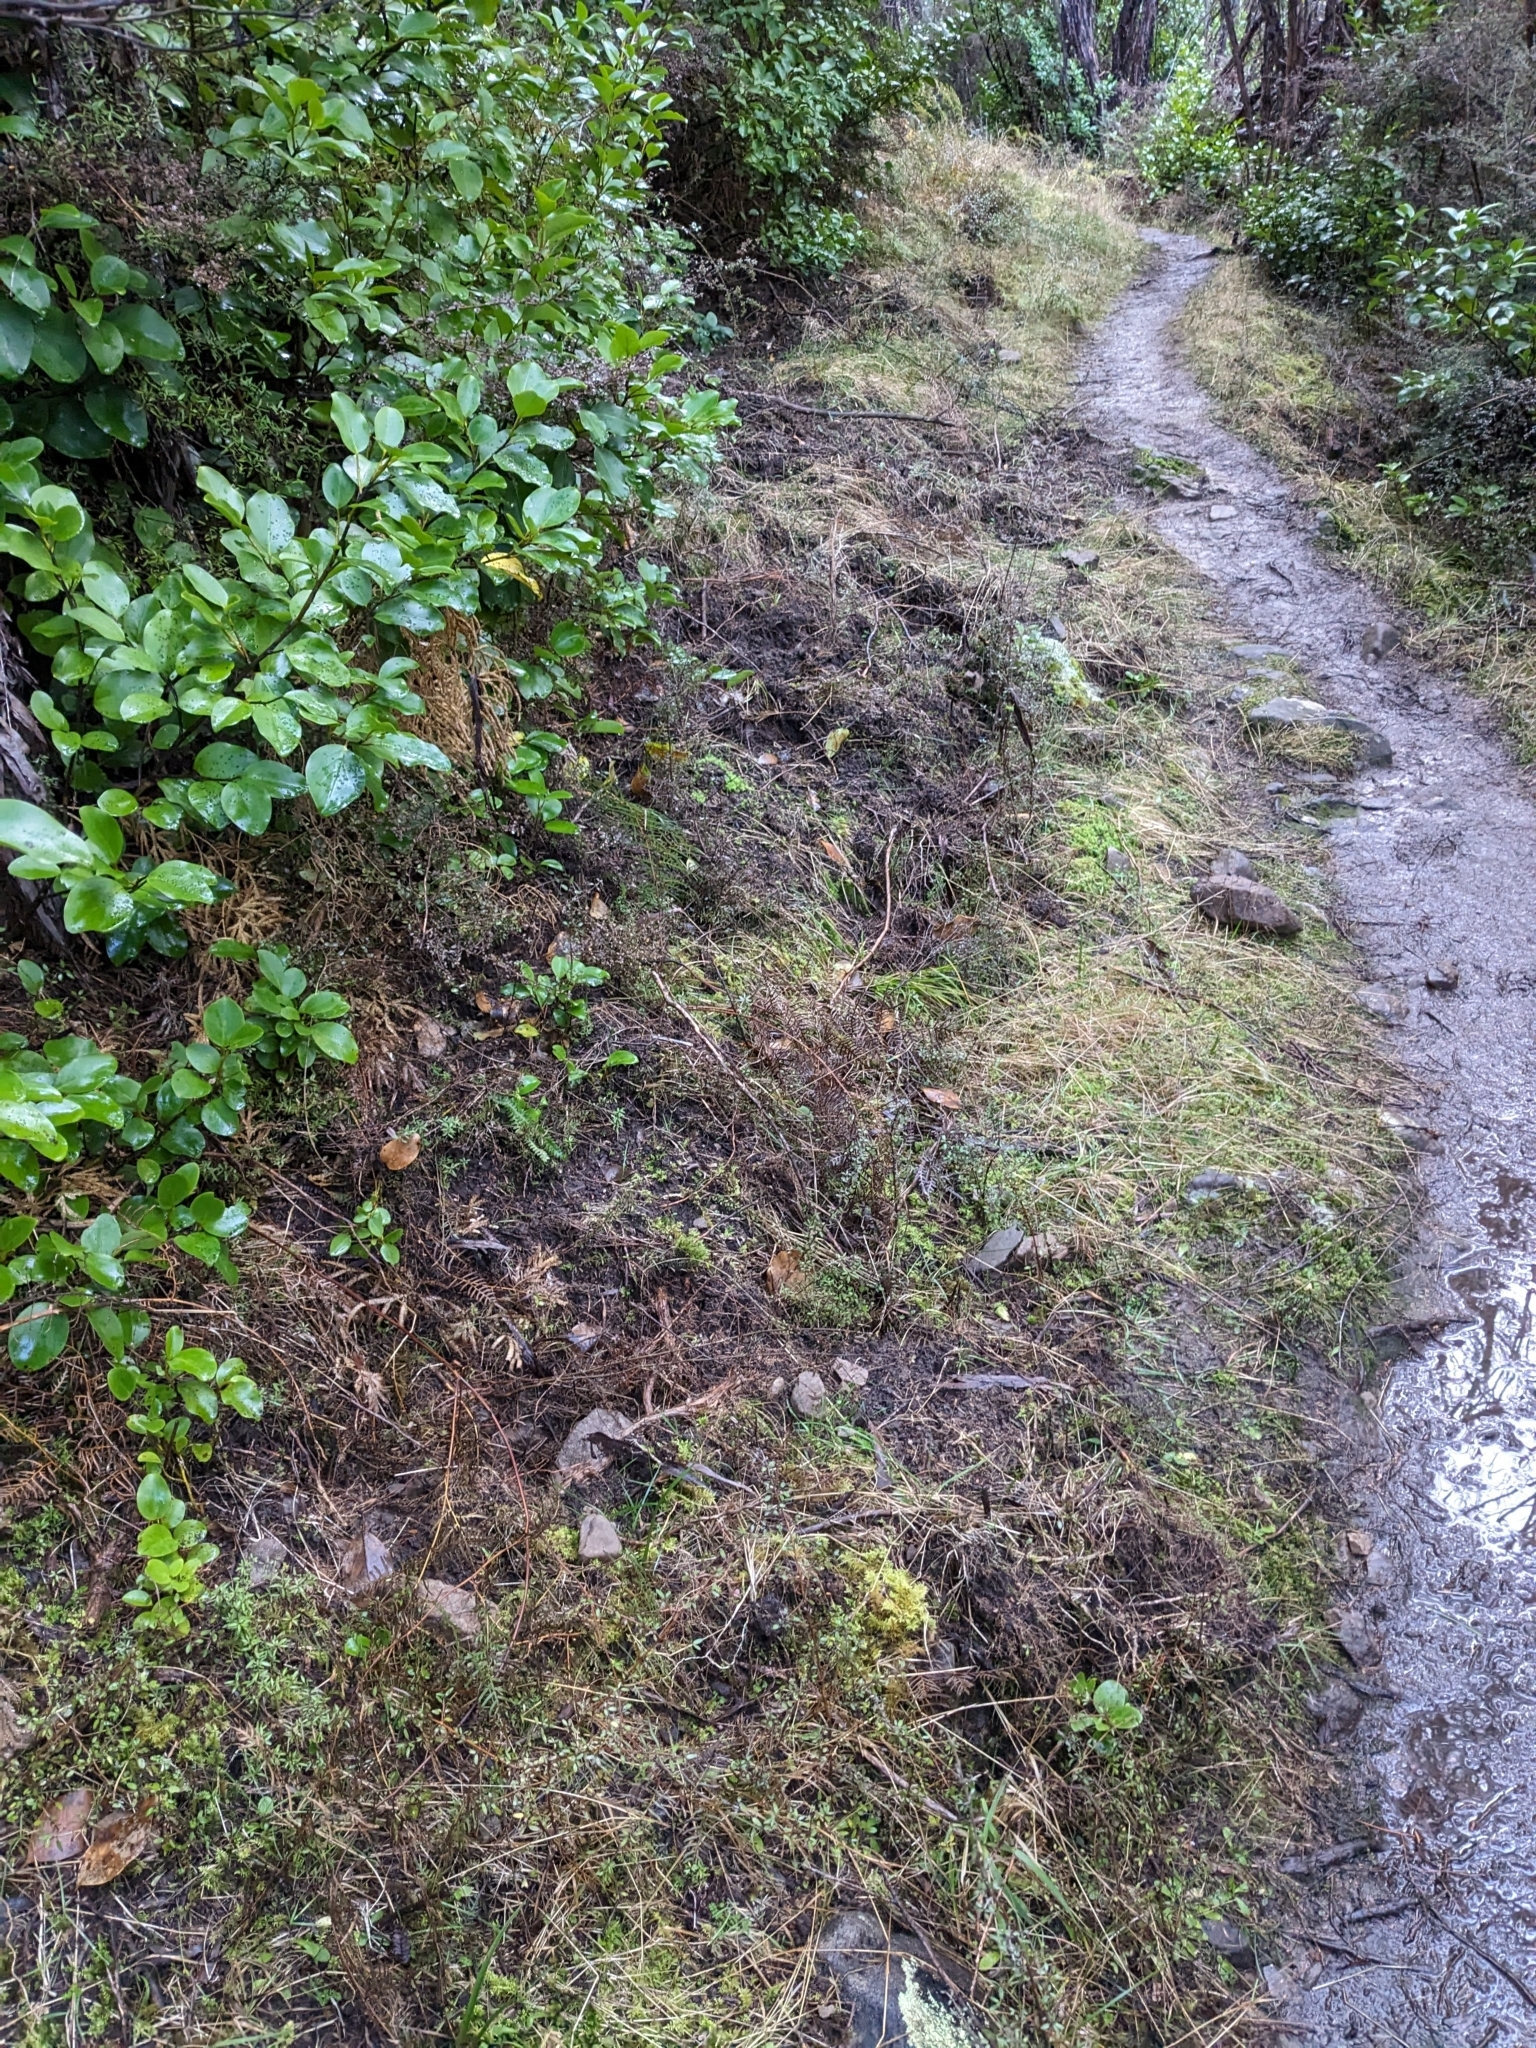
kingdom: Animalia
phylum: Chordata
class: Mammalia
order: Artiodactyla
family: Suidae
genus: Sus
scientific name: Sus scrofa
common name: Wild boar
